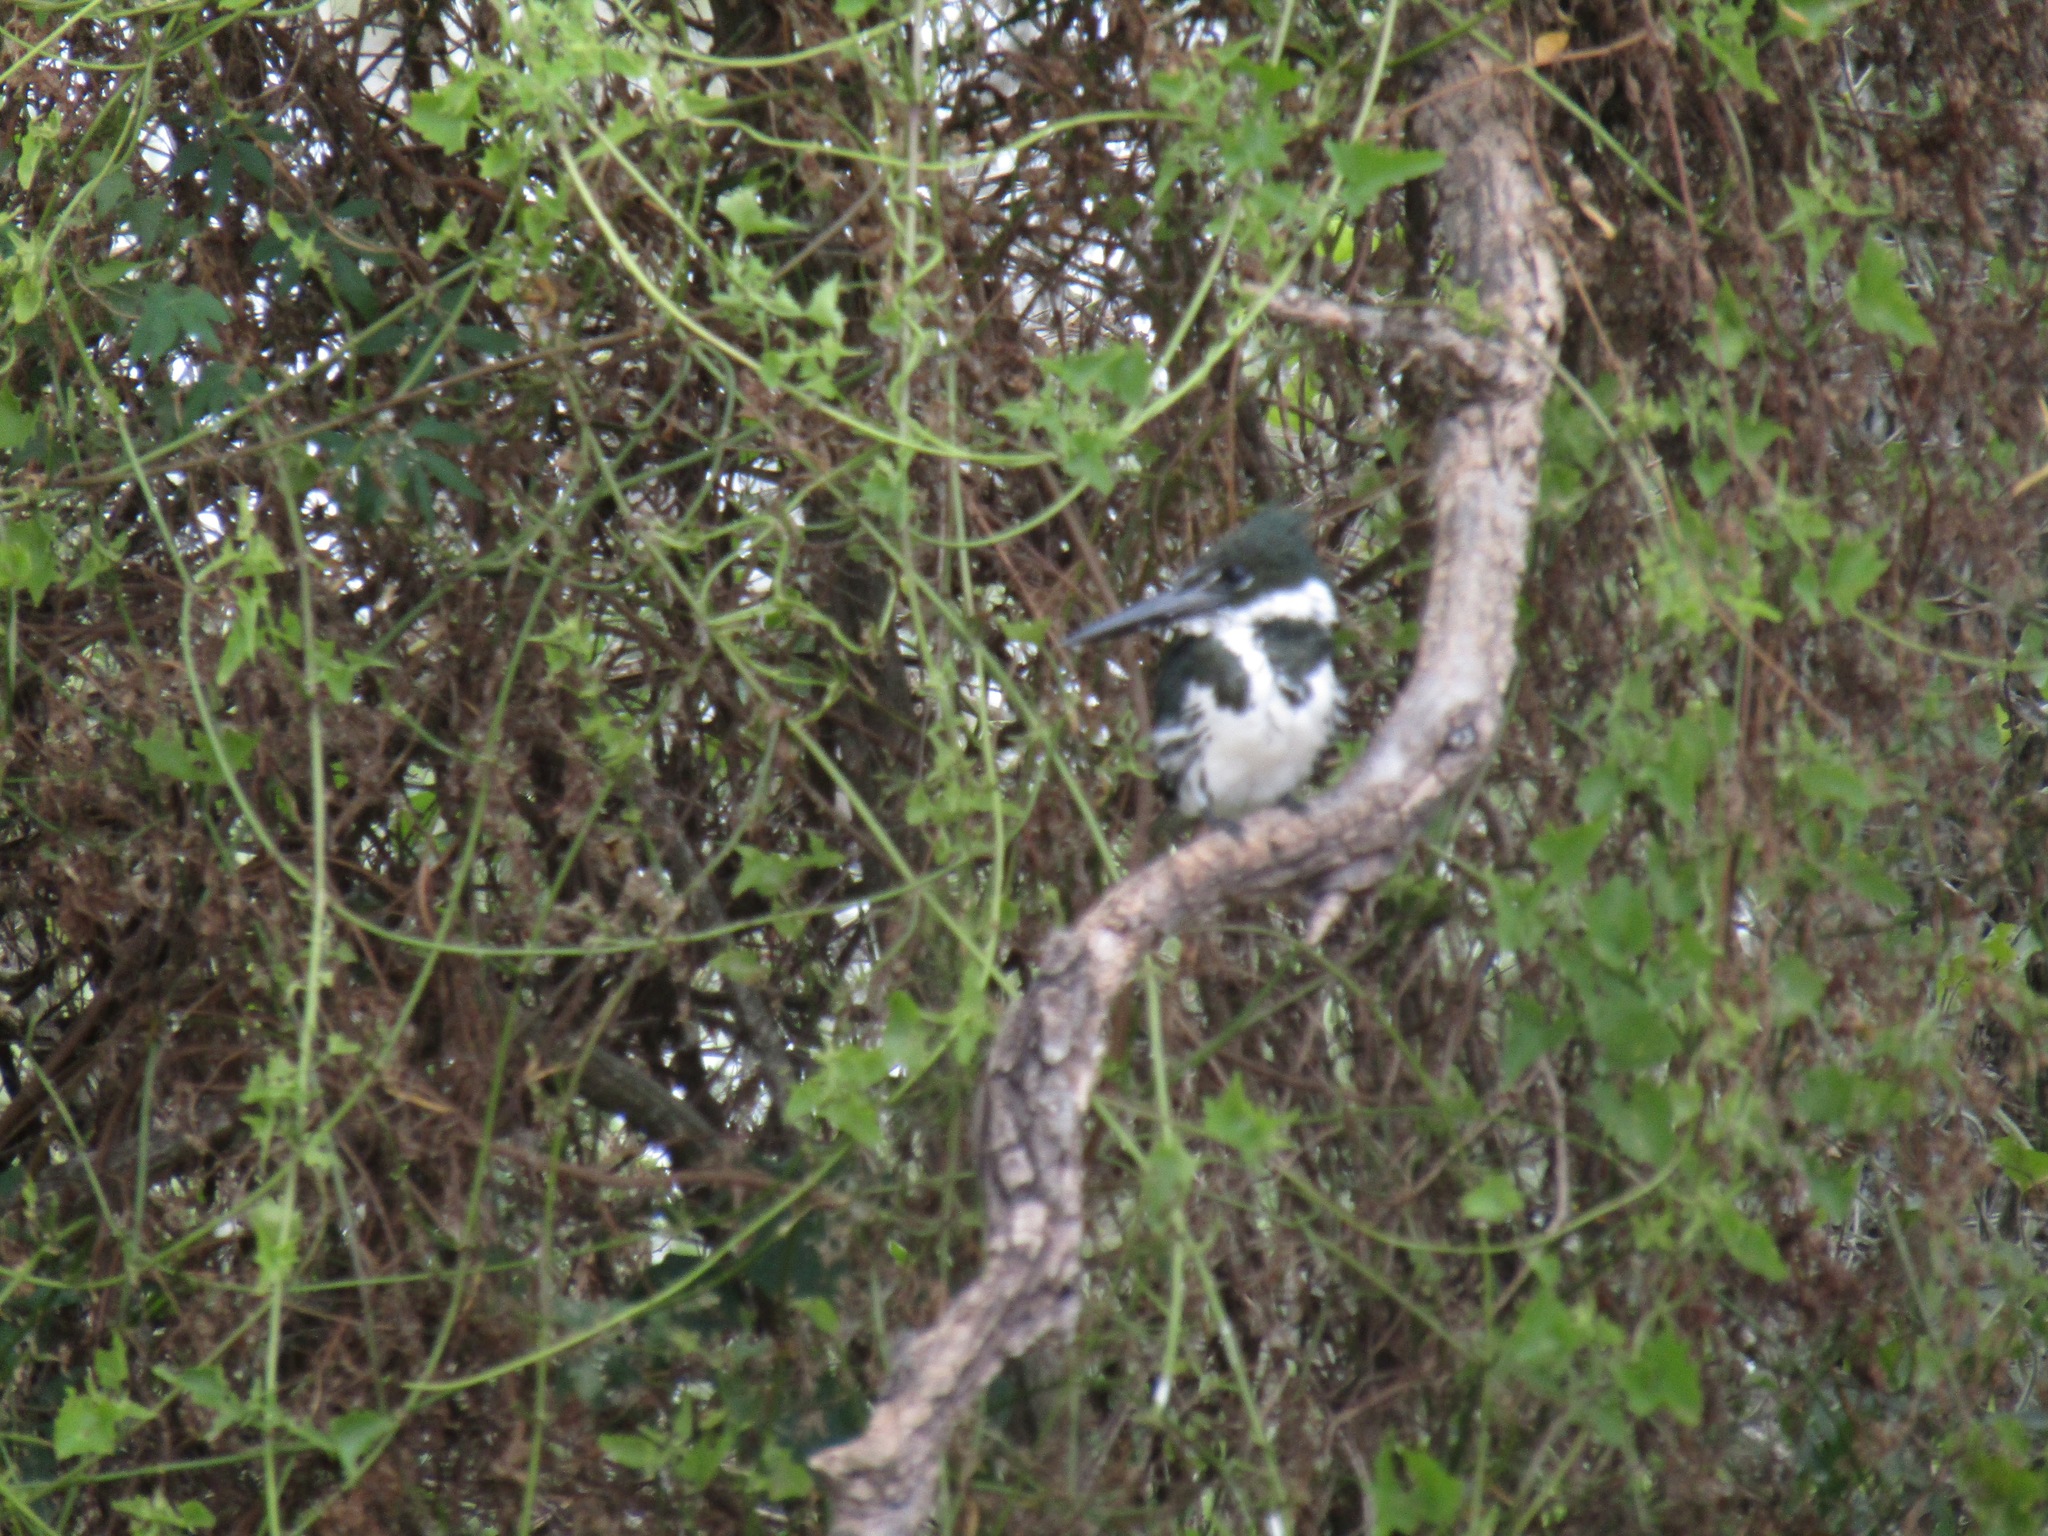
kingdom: Animalia
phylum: Chordata
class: Aves
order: Coraciiformes
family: Alcedinidae
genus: Chloroceryle
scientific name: Chloroceryle amazona
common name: Amazon kingfisher
